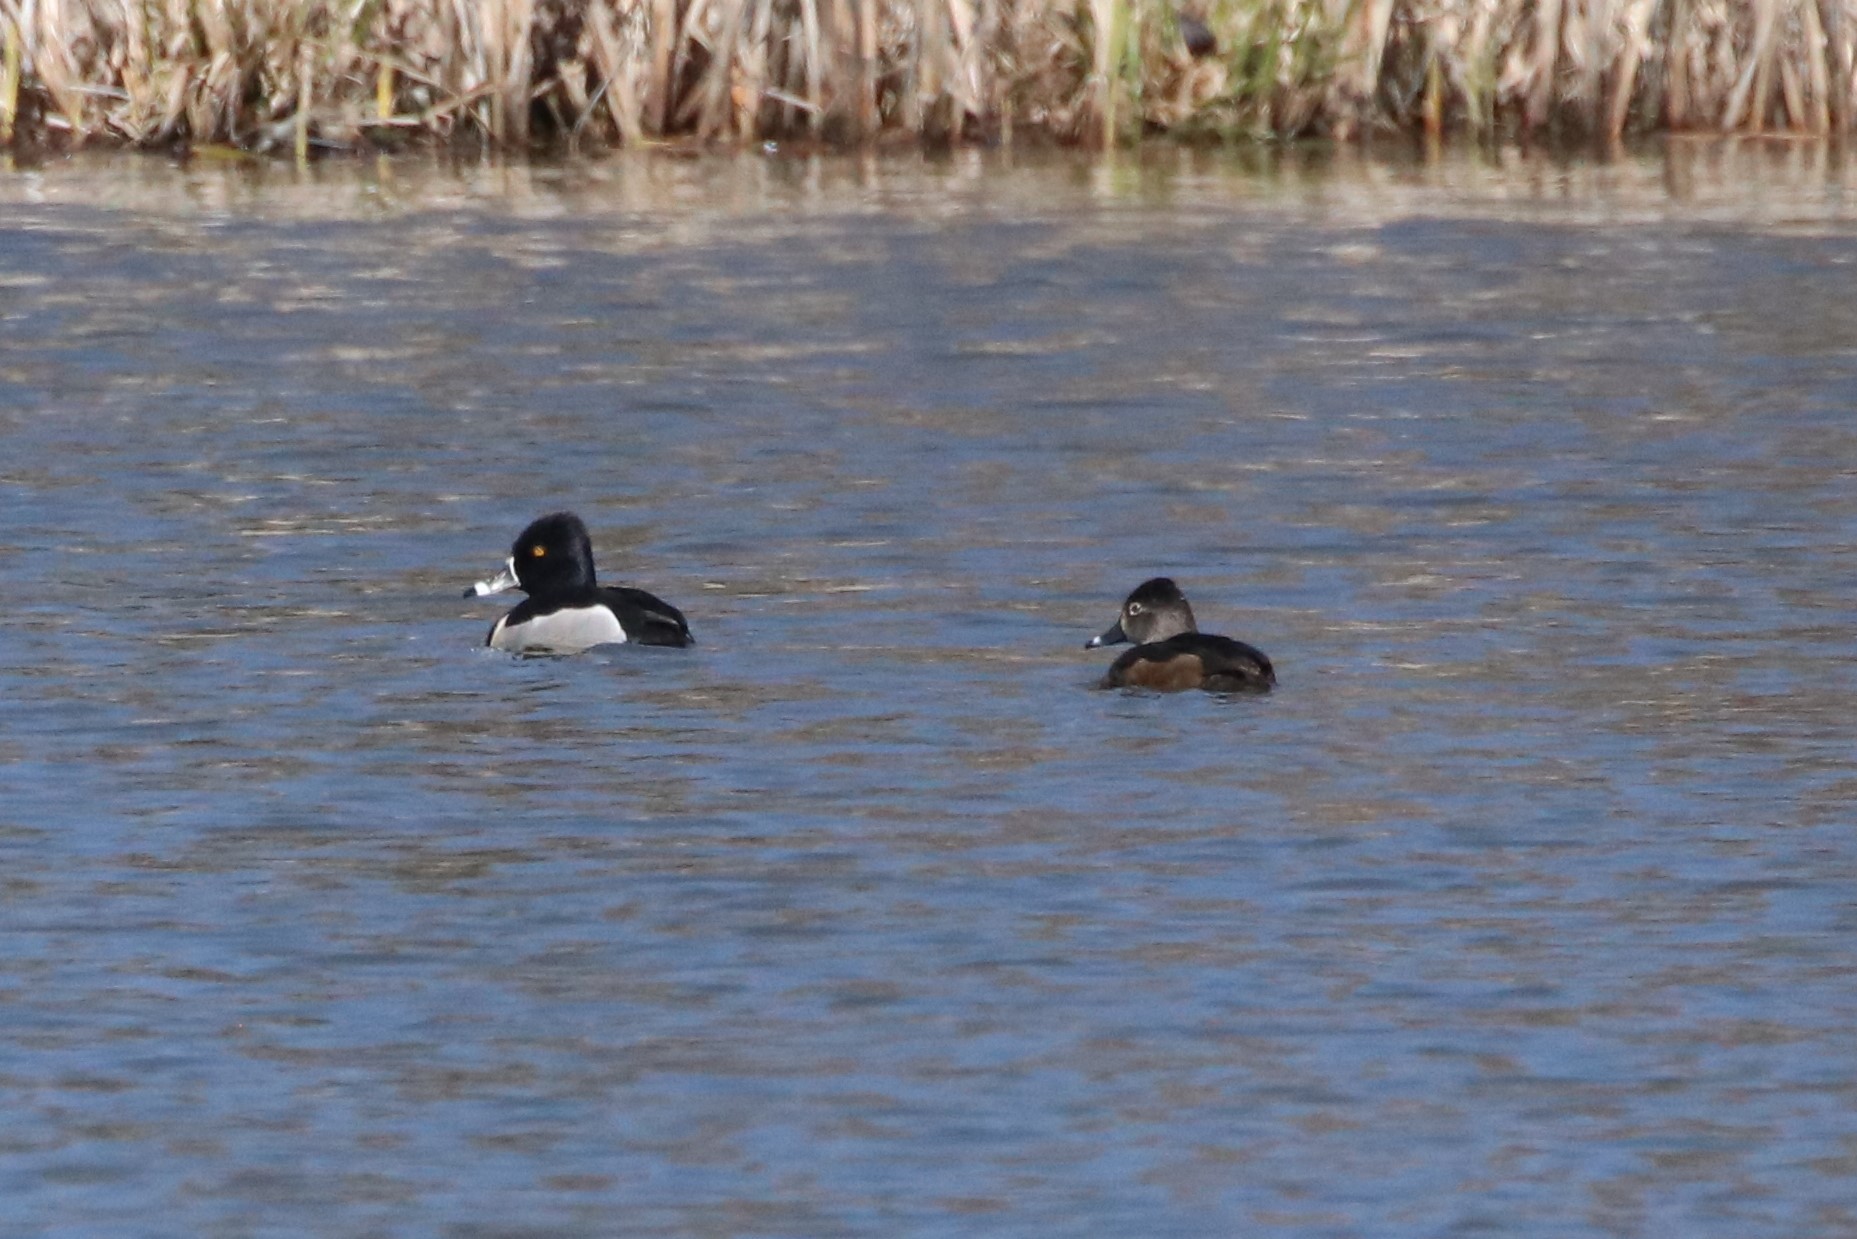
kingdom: Animalia
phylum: Chordata
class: Aves
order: Anseriformes
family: Anatidae
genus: Aythya
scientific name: Aythya collaris
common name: Ring-necked duck
